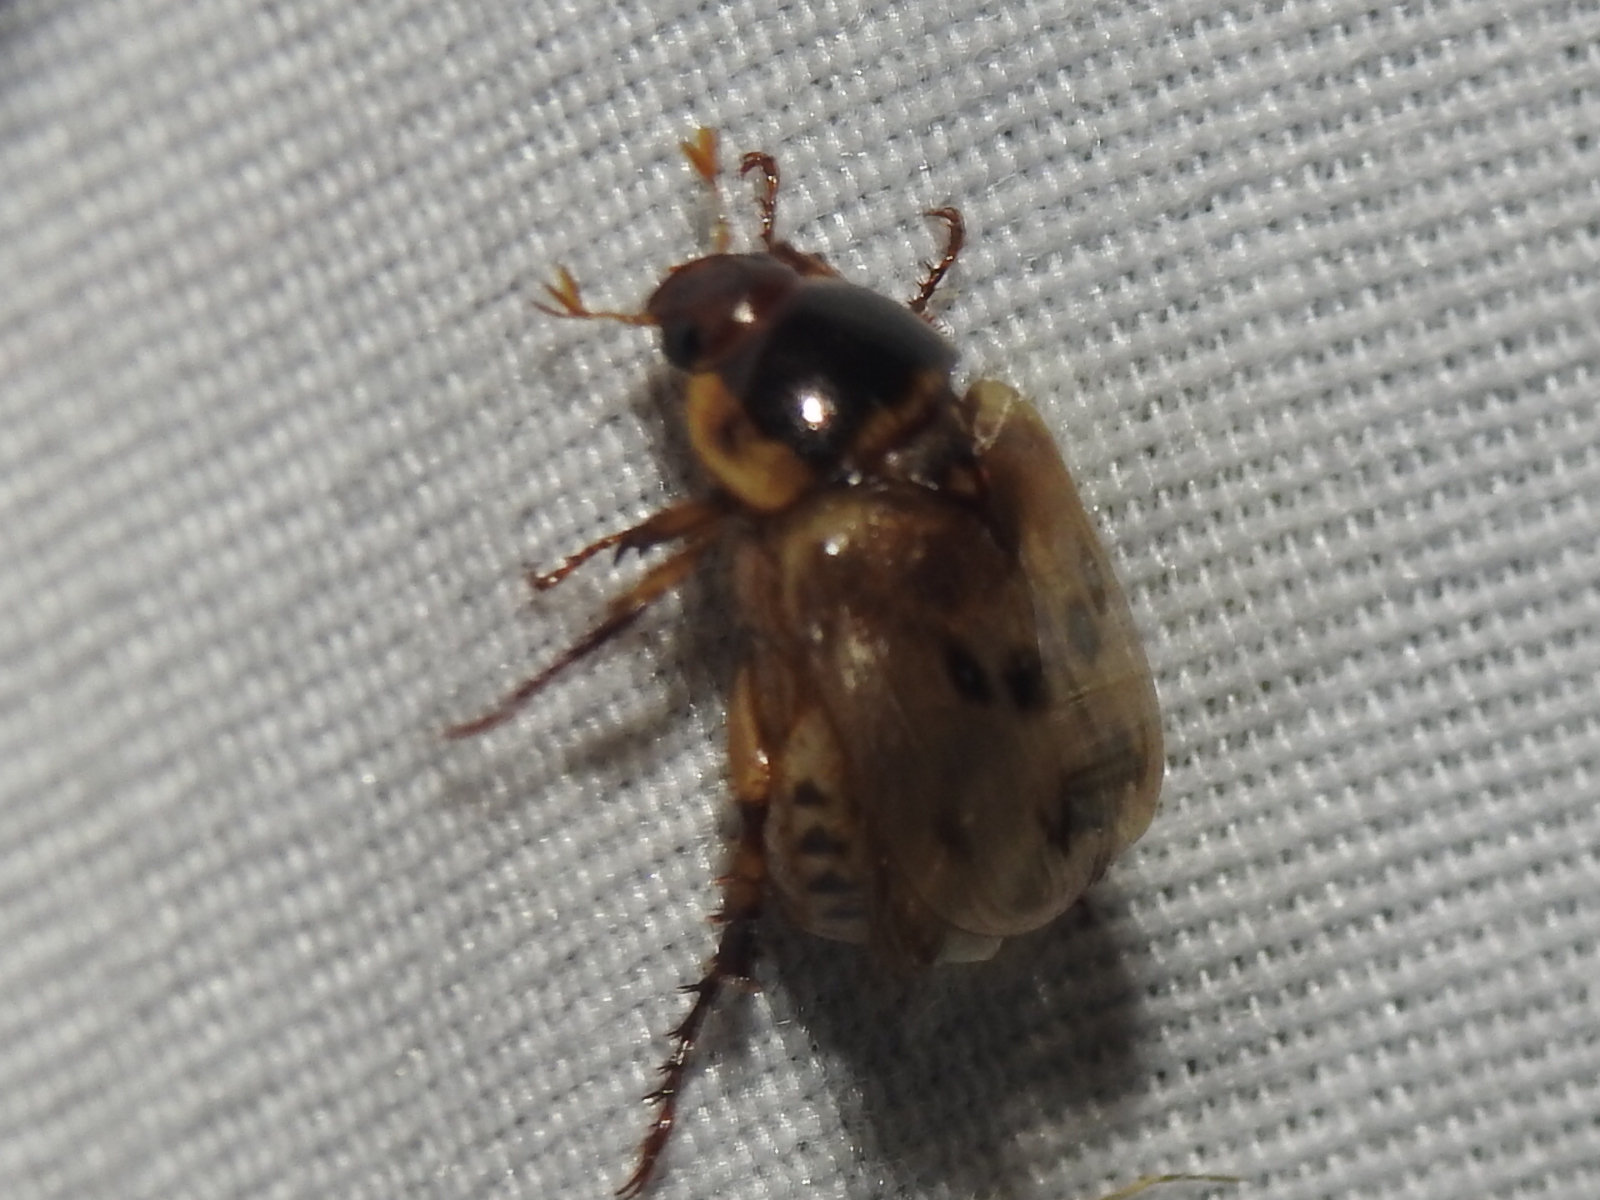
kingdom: Animalia
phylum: Arthropoda
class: Insecta
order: Coleoptera
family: Scarabaeidae
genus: Anomala
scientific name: Anomala innuba
